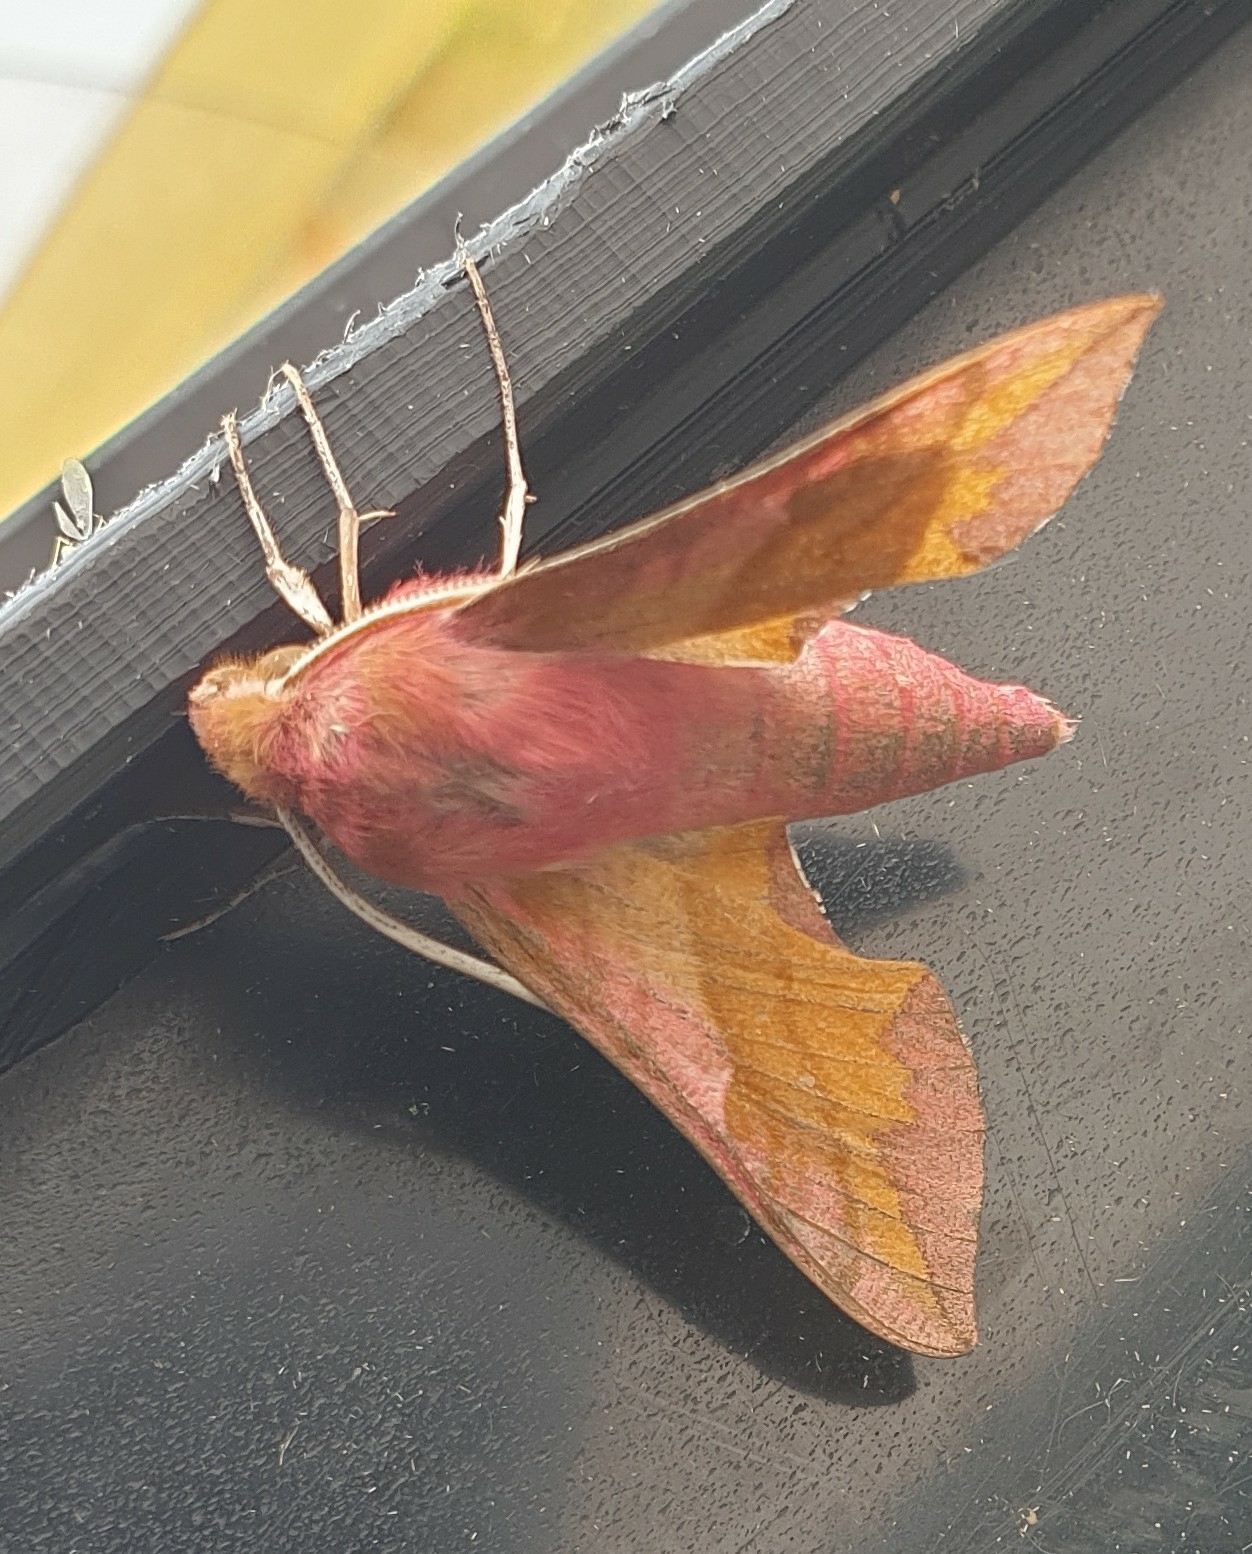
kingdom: Animalia
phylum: Arthropoda
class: Insecta
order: Lepidoptera
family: Sphingidae
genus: Deilephila
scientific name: Deilephila porcellus
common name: Small elephant hawk-moth
